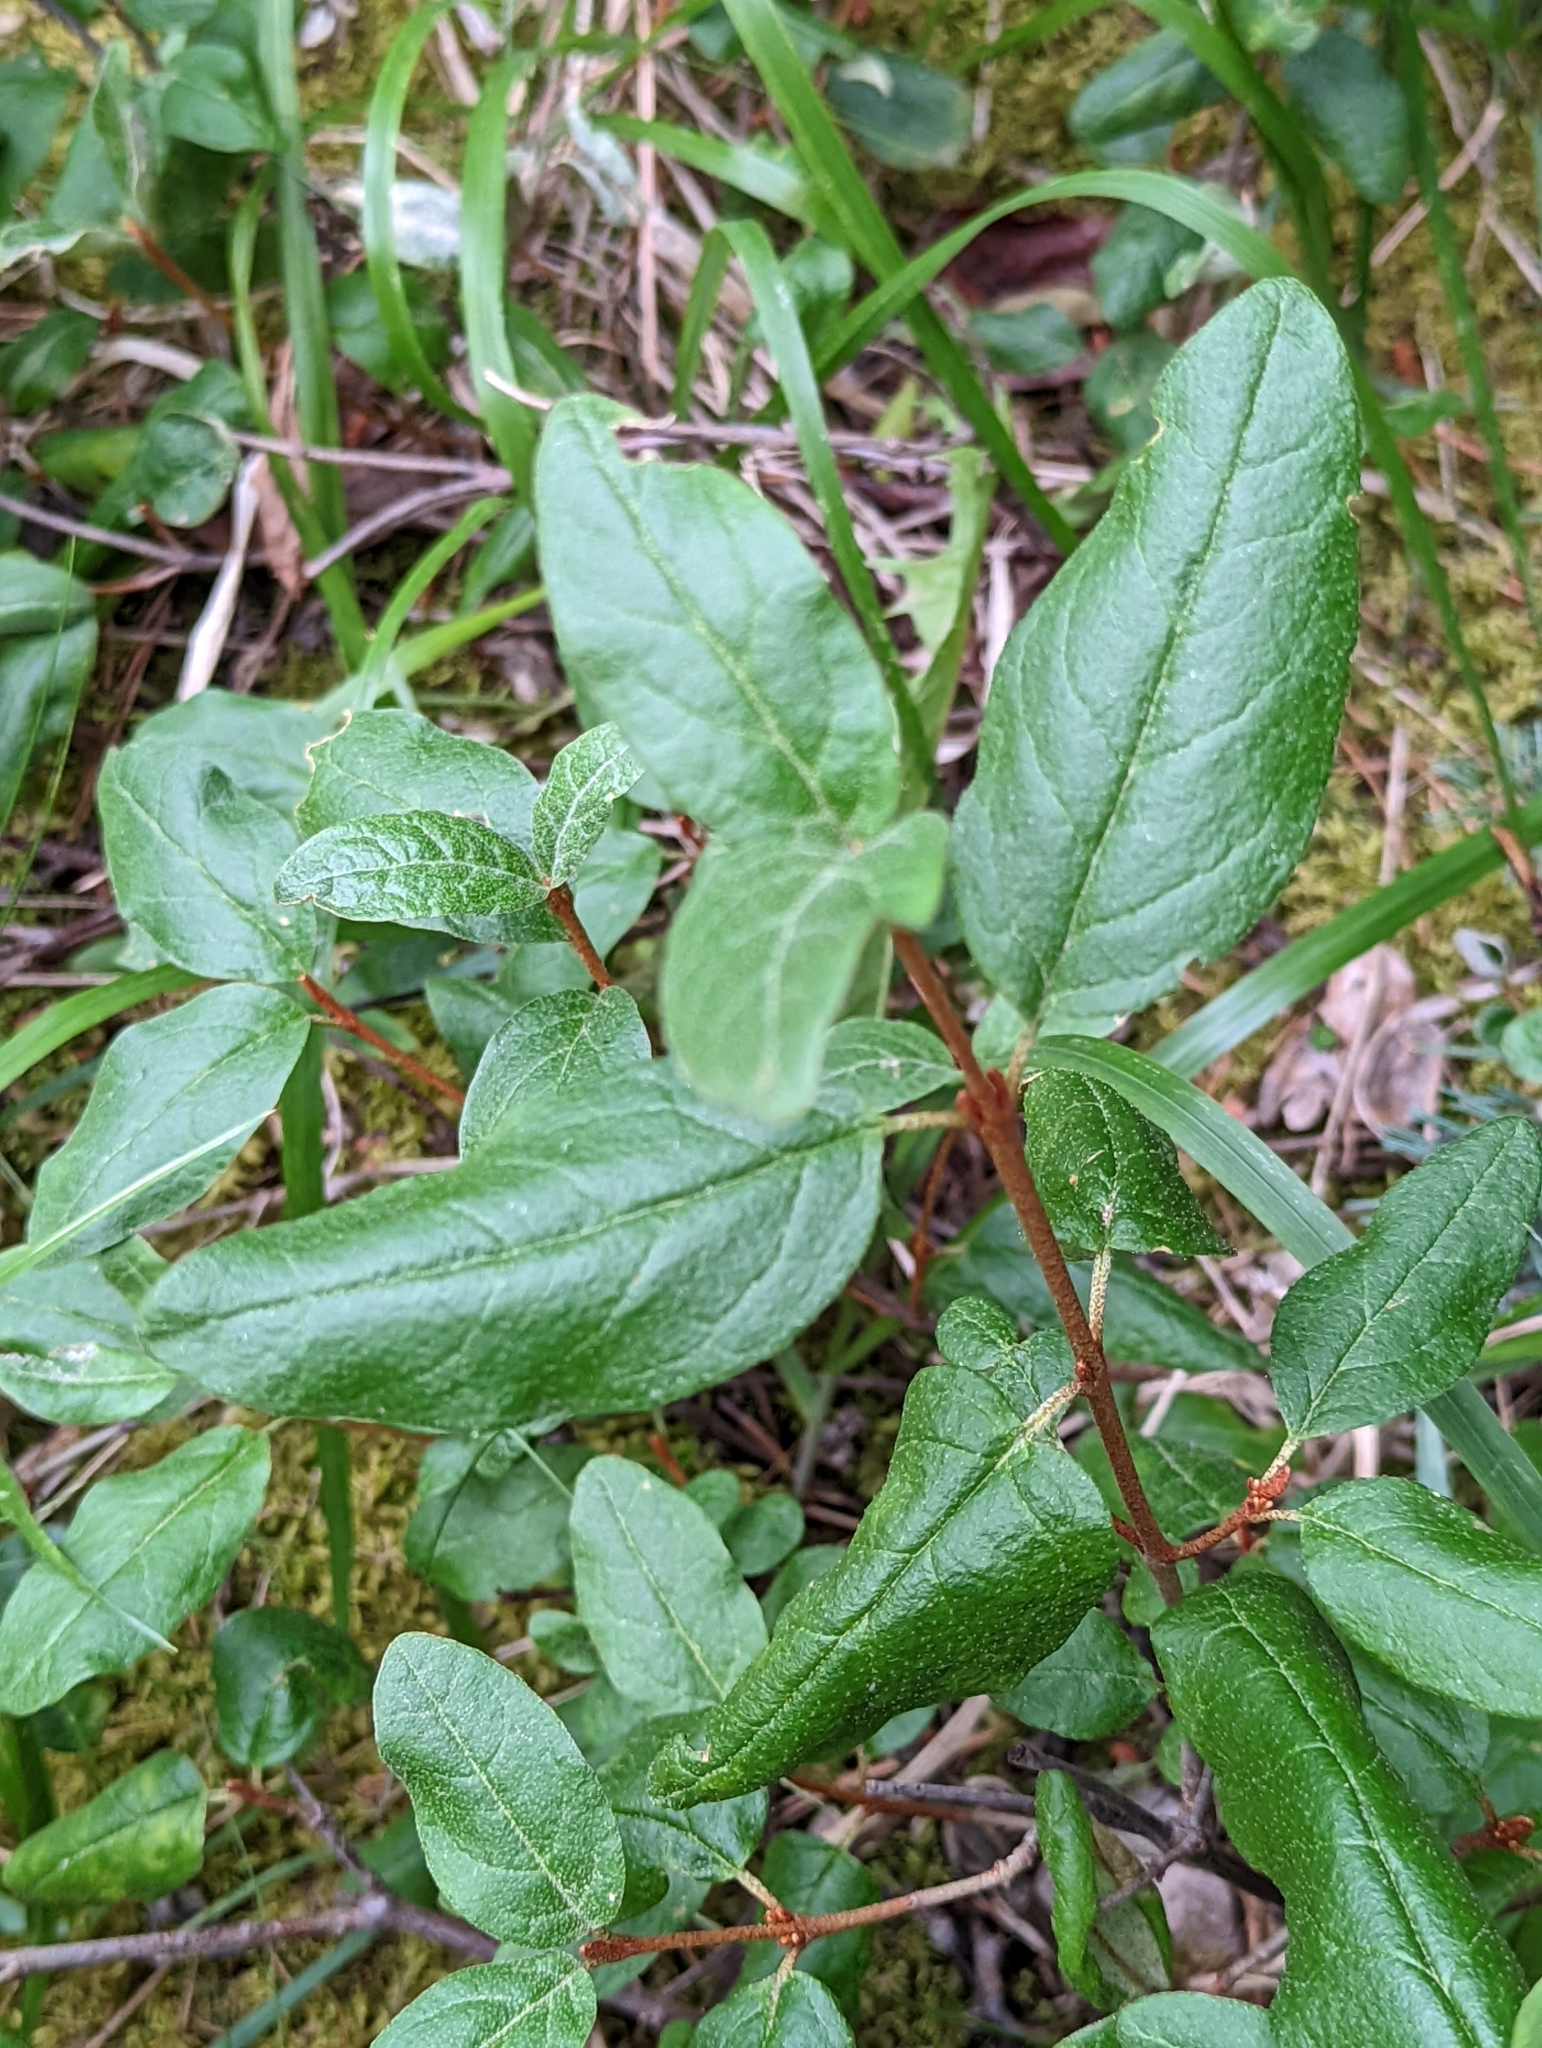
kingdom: Plantae
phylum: Tracheophyta
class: Magnoliopsida
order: Rosales
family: Elaeagnaceae
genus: Shepherdia
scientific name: Shepherdia canadensis
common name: Soapberry
